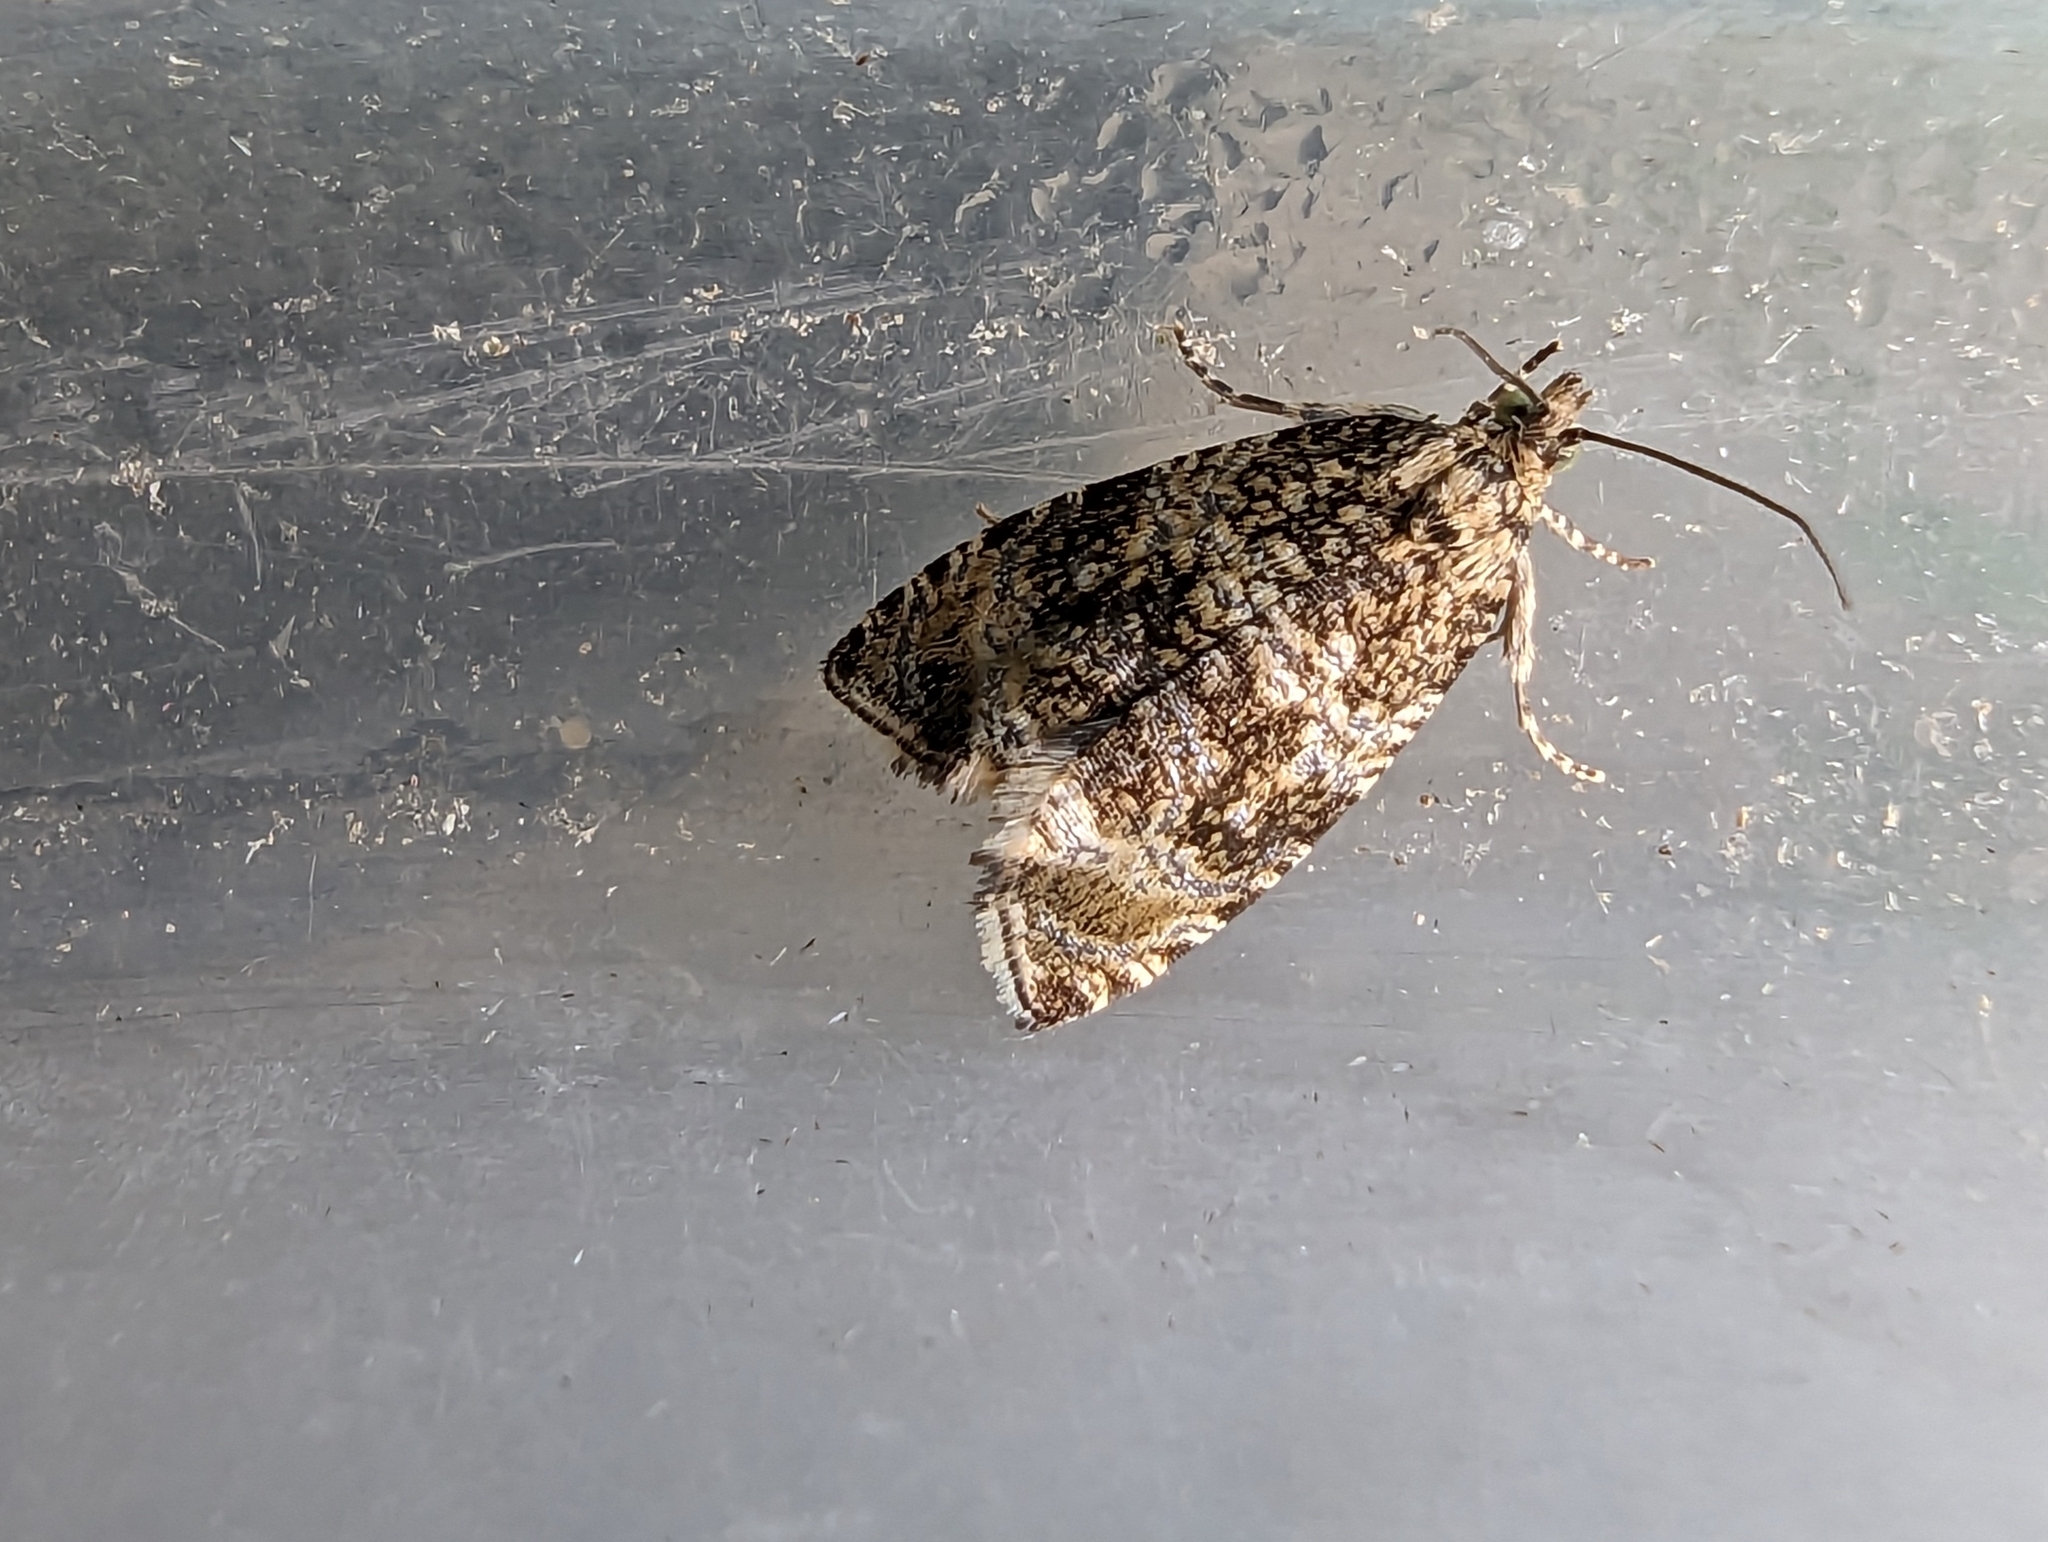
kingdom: Animalia
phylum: Arthropoda
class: Insecta
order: Lepidoptera
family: Tortricidae
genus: Syricoris
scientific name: Syricoris lacunana
